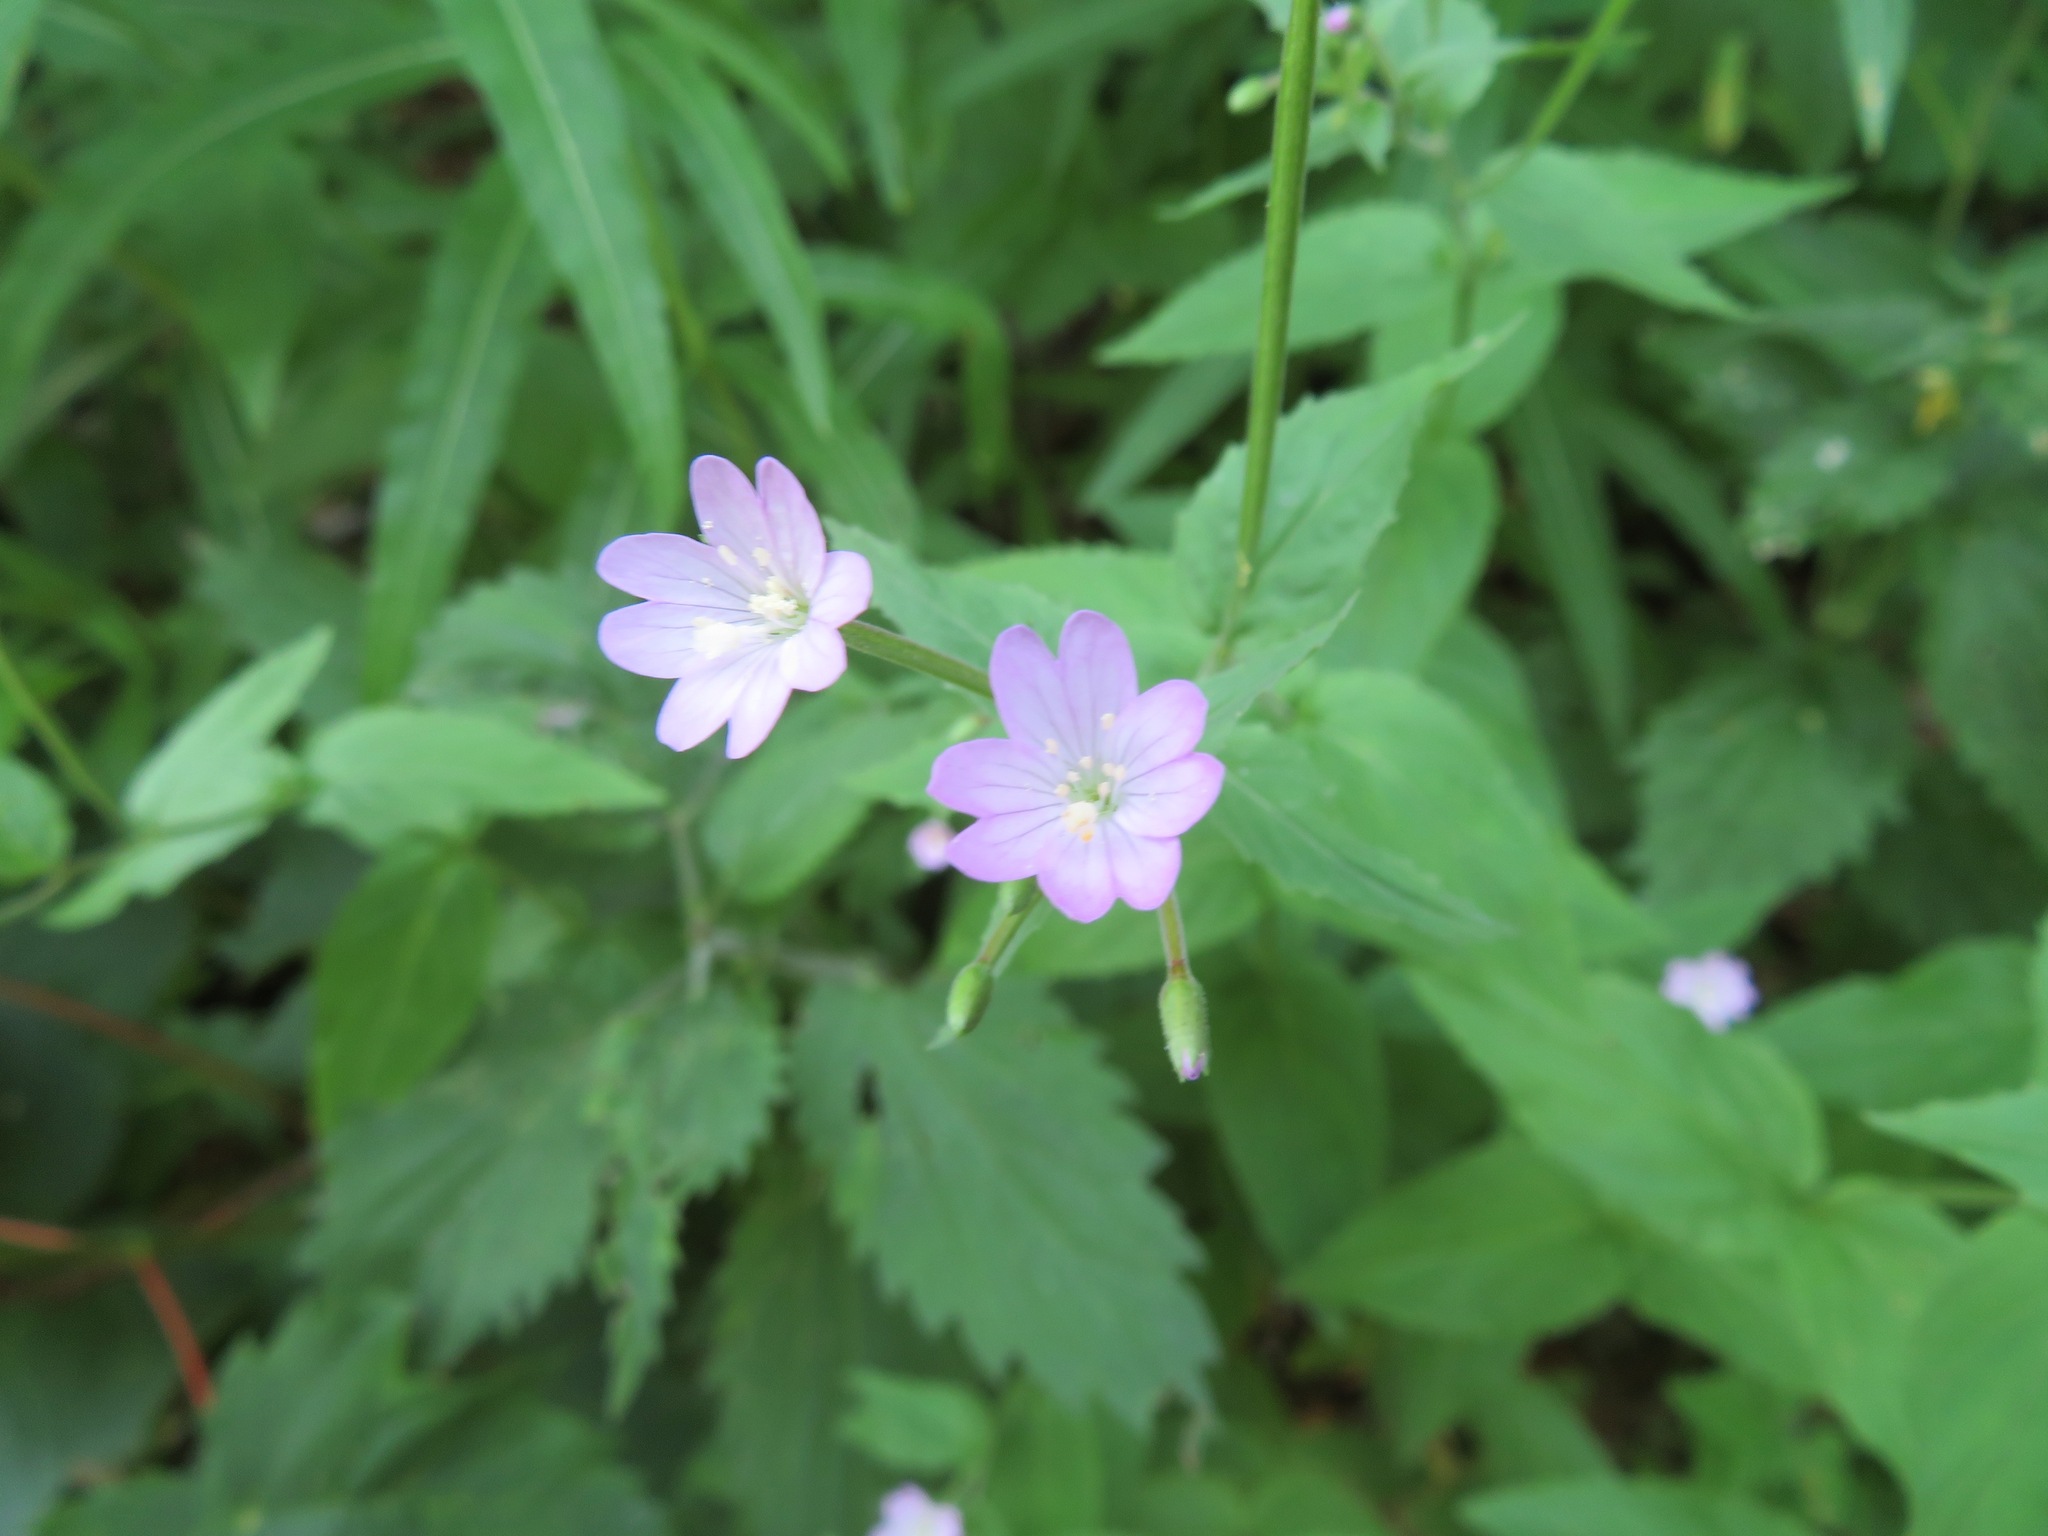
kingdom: Plantae
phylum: Tracheophyta
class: Magnoliopsida
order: Myrtales
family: Onagraceae
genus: Epilobium
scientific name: Epilobium montanum
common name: Broad-leaved willowherb
